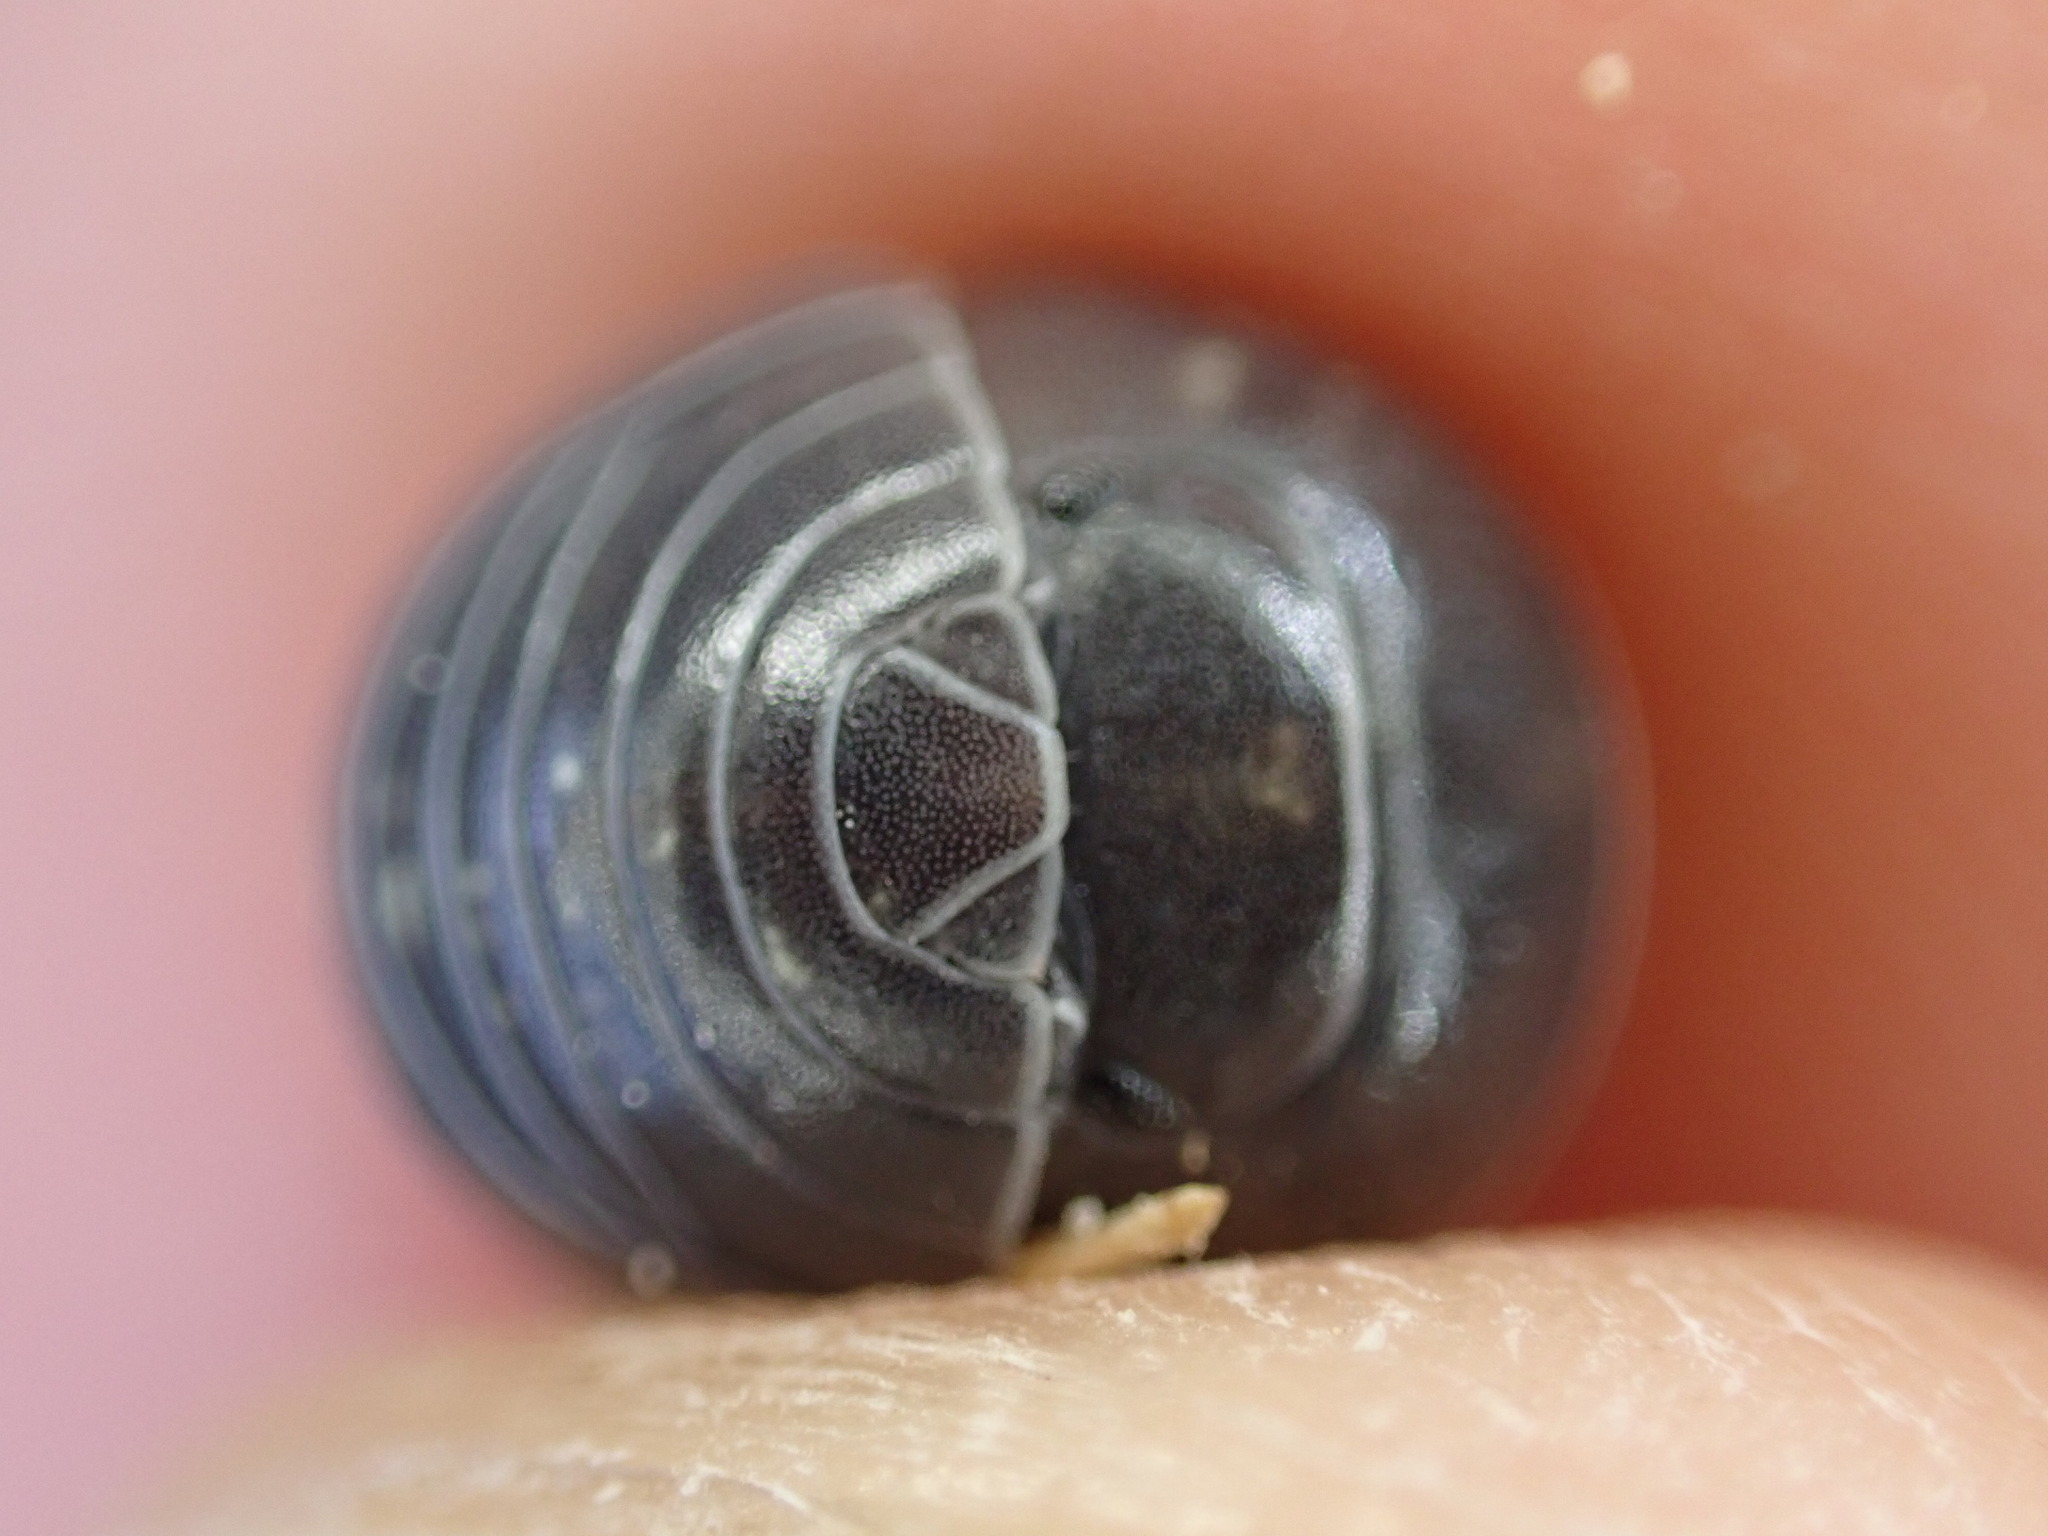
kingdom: Animalia
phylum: Arthropoda
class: Malacostraca
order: Isopoda
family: Armadillidiidae
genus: Armadillidium
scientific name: Armadillidium vulgare
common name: Common pill woodlouse
